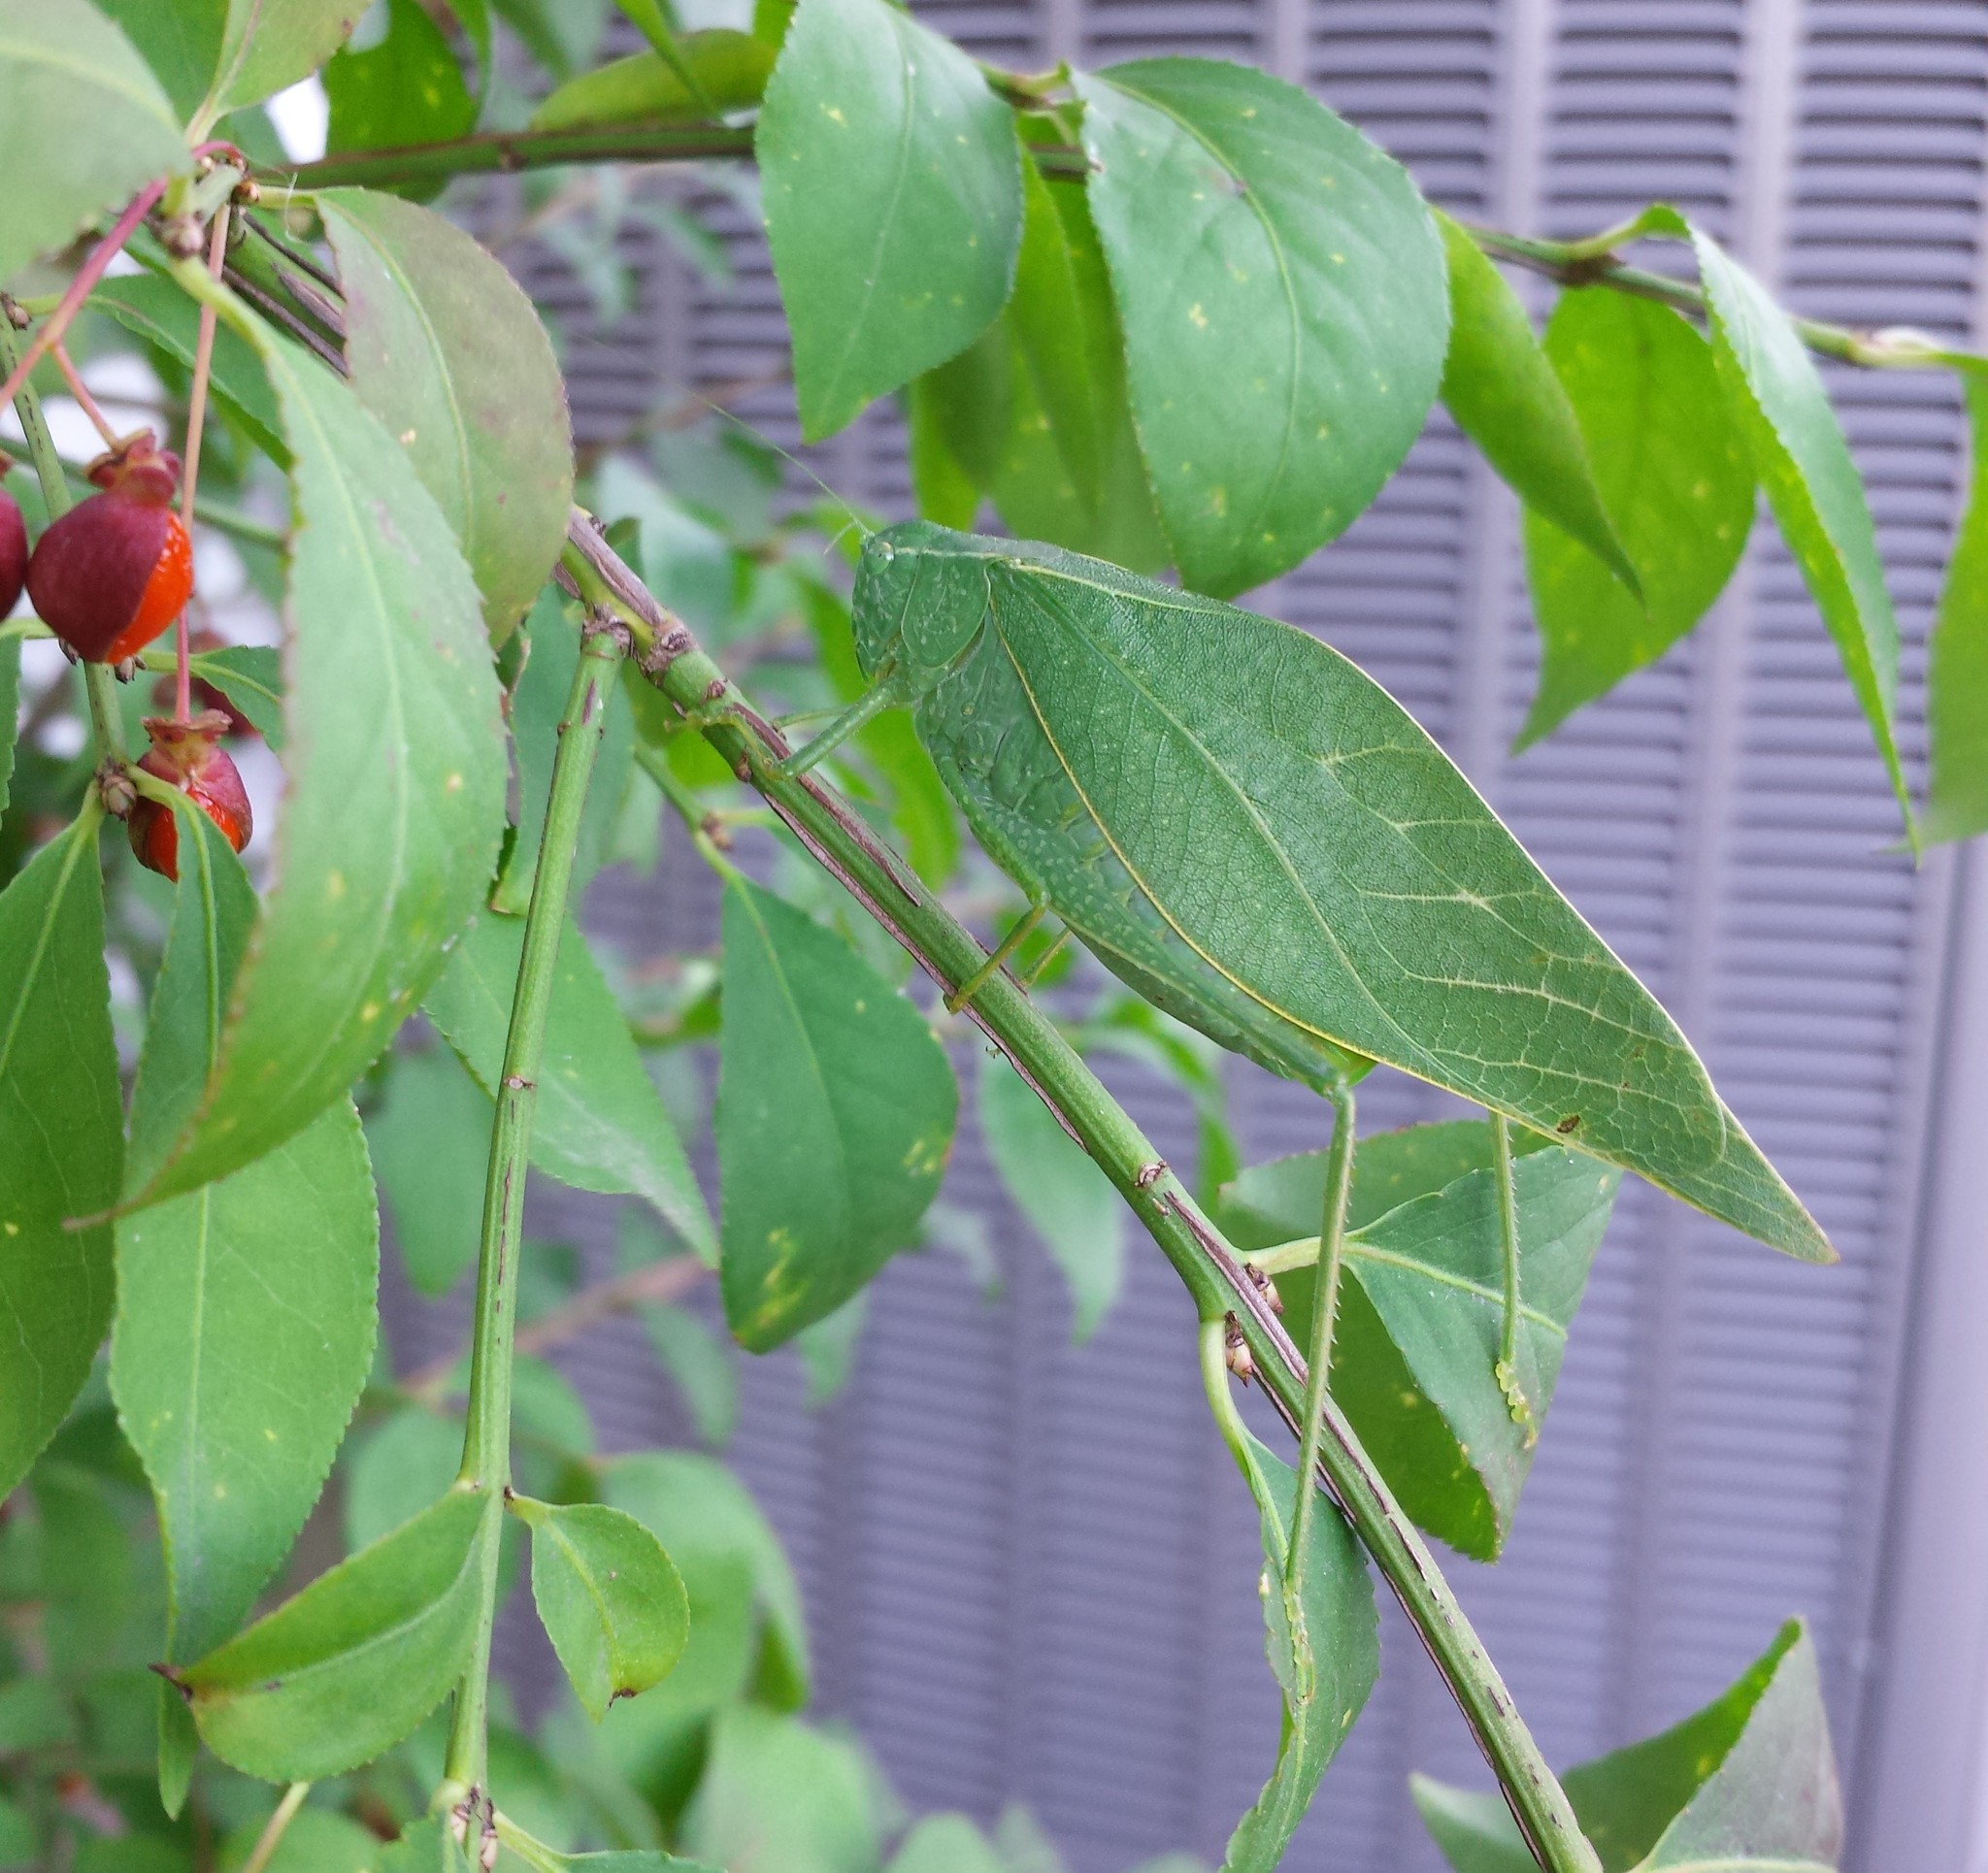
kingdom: Animalia
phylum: Arthropoda
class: Insecta
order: Orthoptera
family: Tettigoniidae
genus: Microcentrum
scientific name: Microcentrum rhombifolium
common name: Broad-winged katydid
